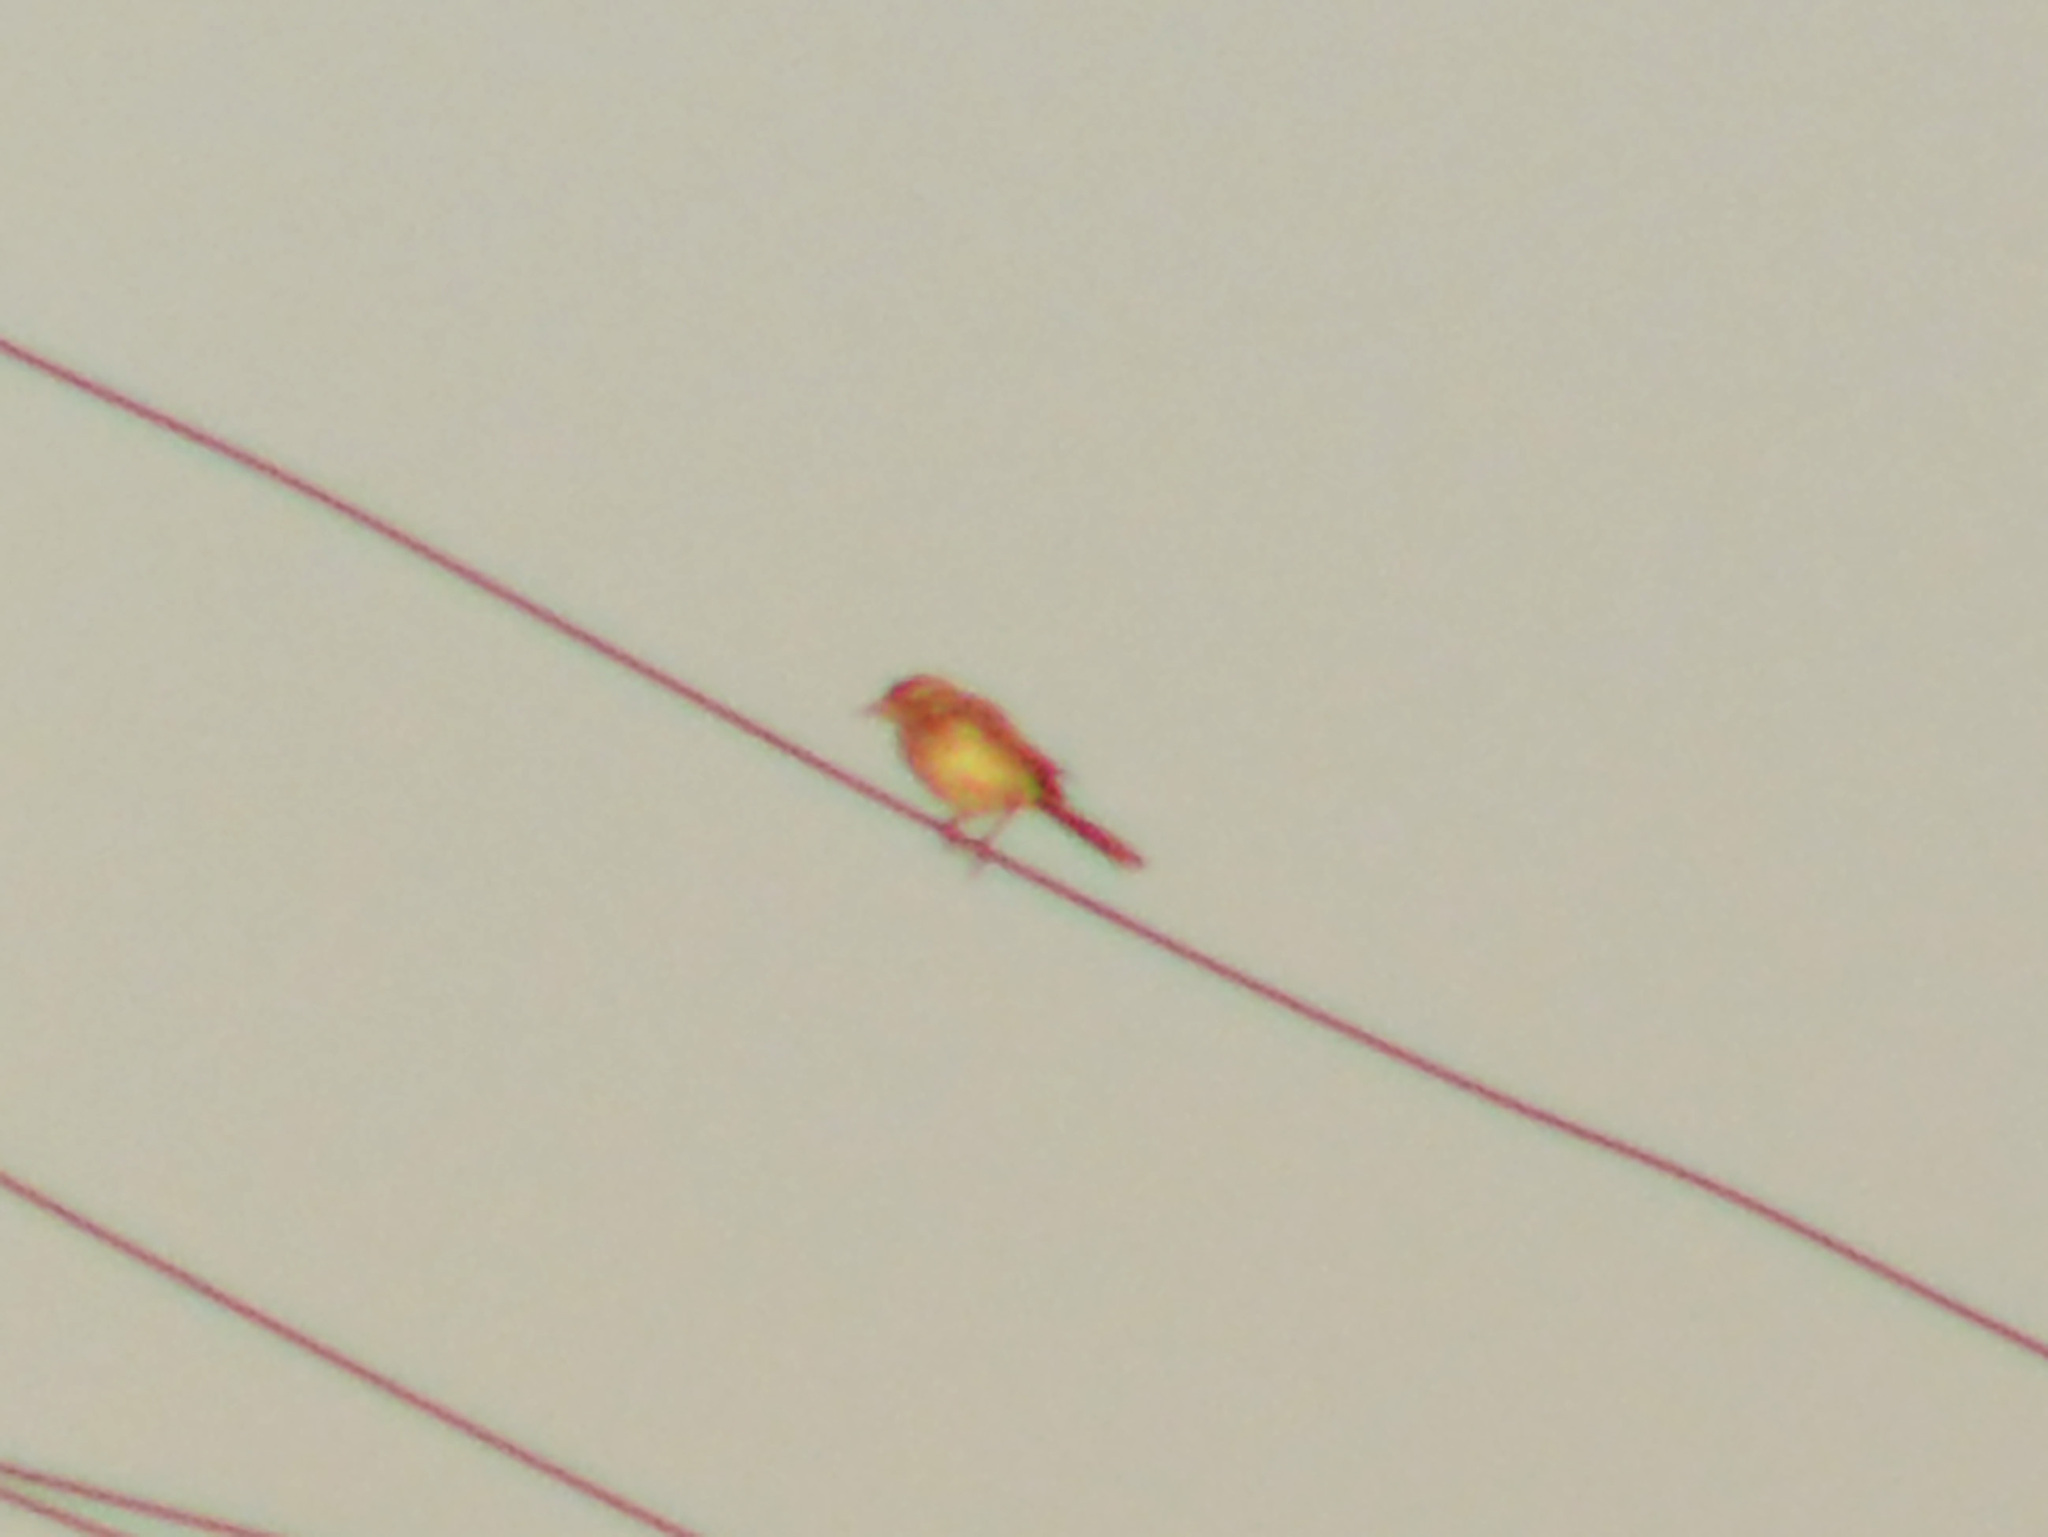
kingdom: Animalia
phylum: Chordata
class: Aves
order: Passeriformes
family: Motacillidae
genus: Motacilla
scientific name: Motacilla flava
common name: Western yellow wagtail
